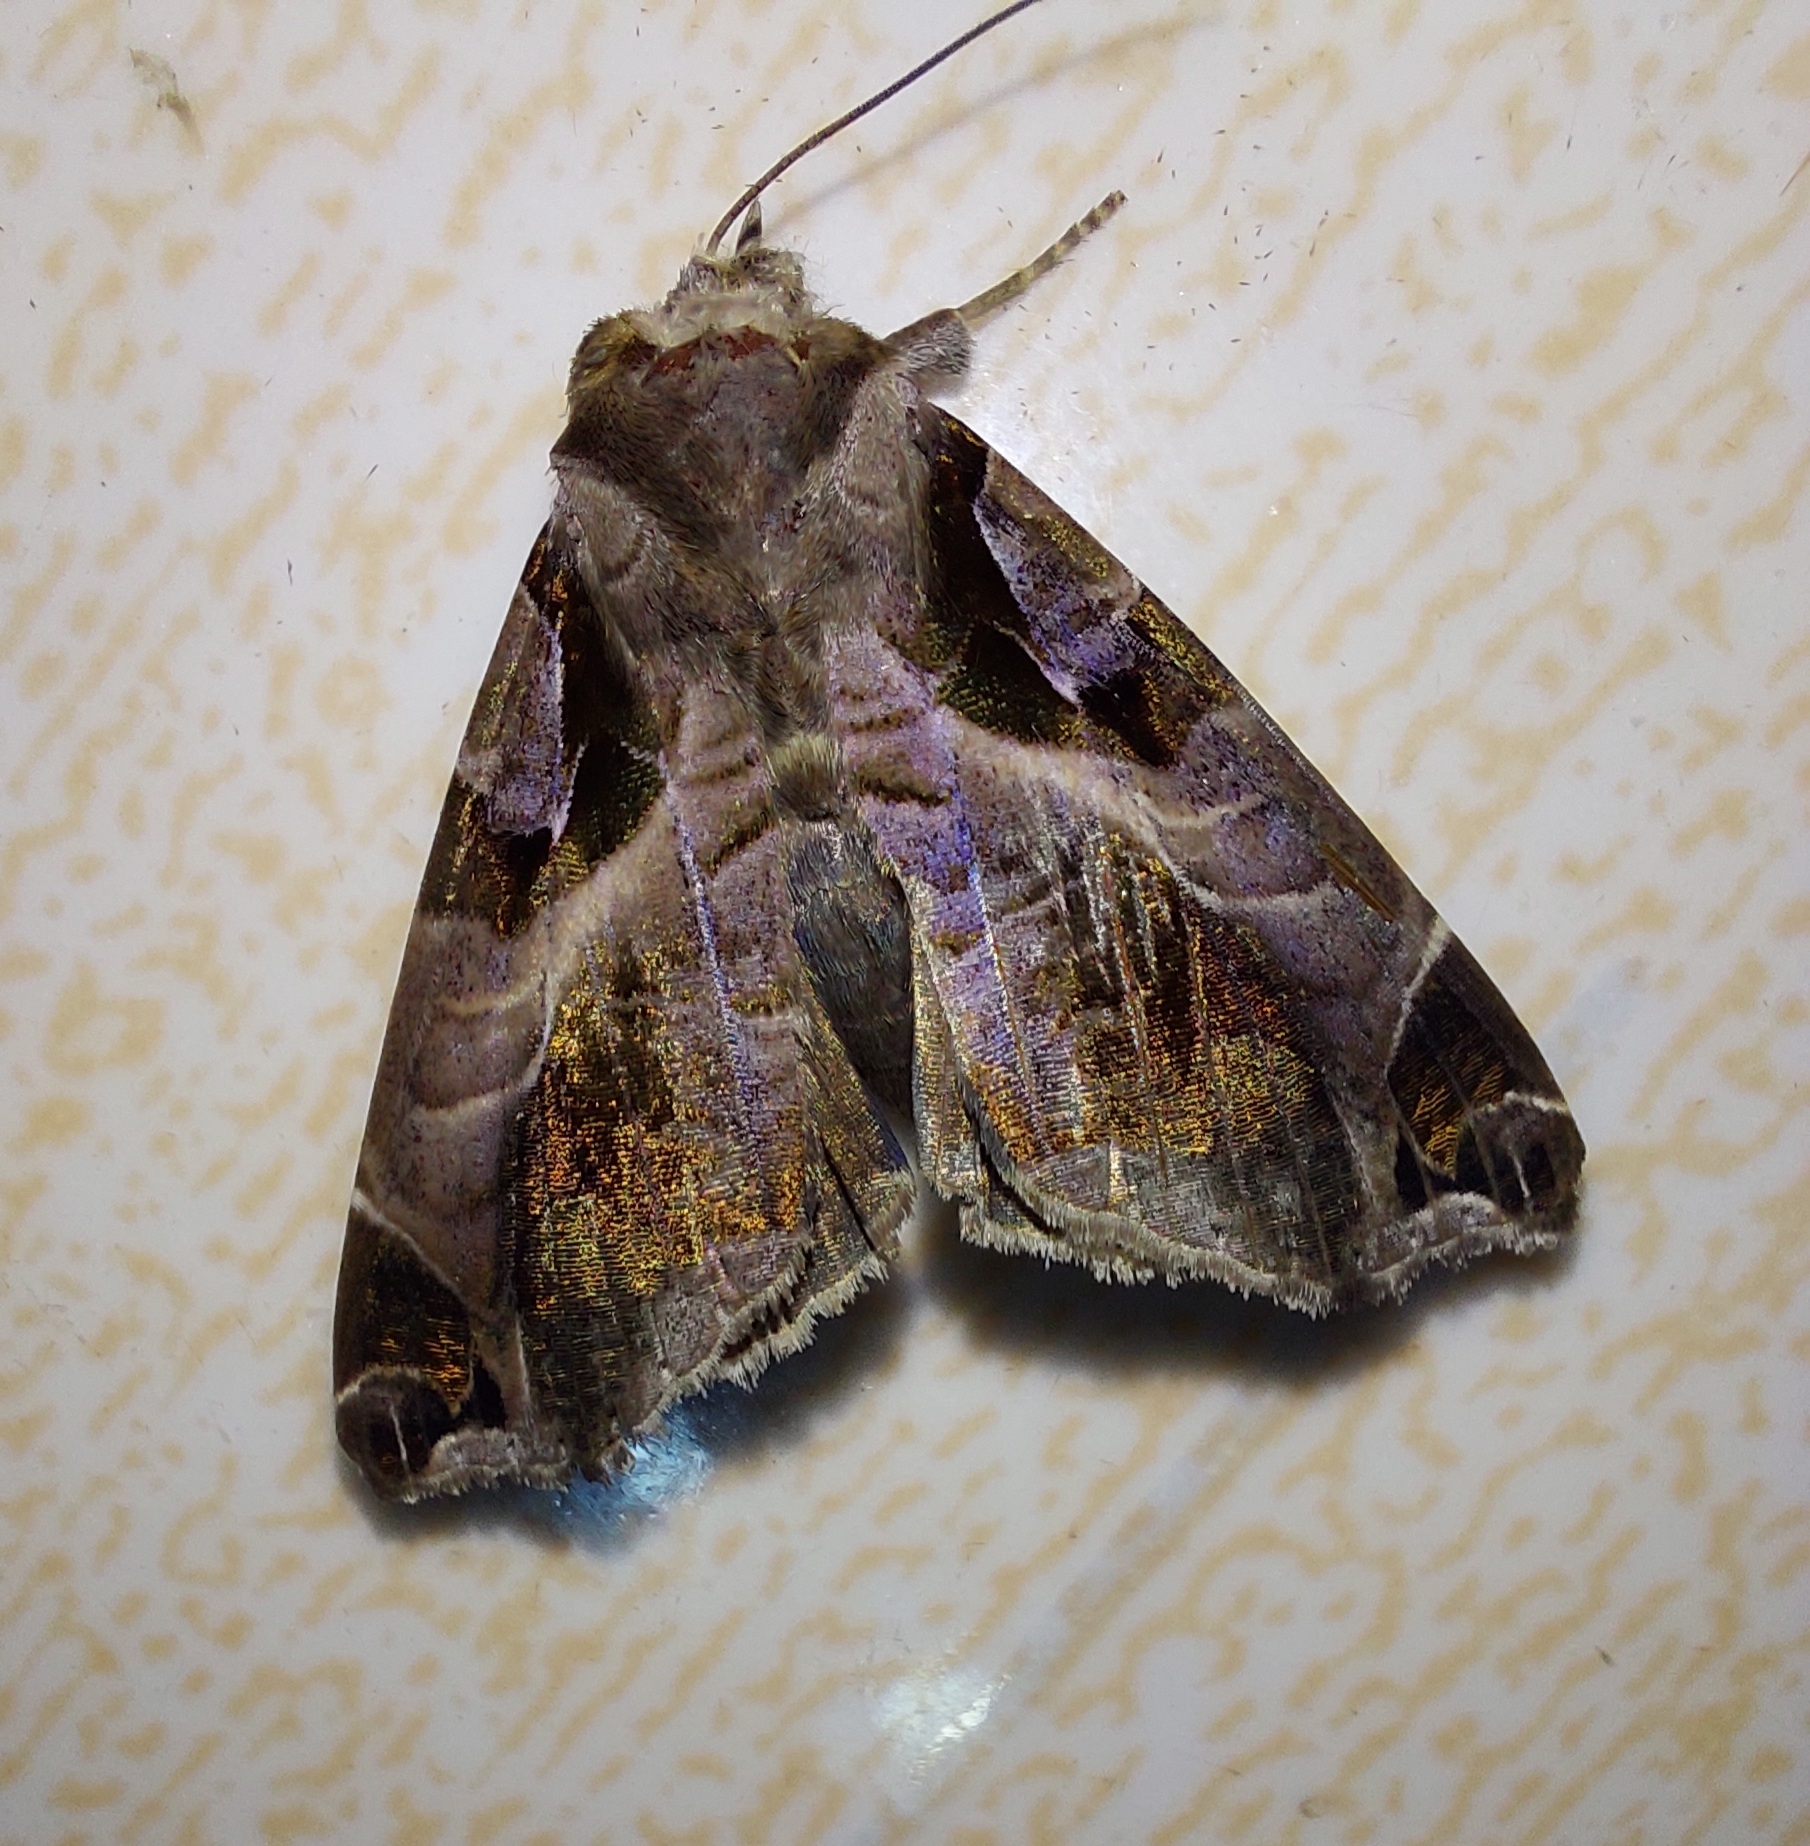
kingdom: Animalia
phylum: Arthropoda
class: Insecta
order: Lepidoptera
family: Erebidae
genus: Calyptis
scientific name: Calyptis idonea
